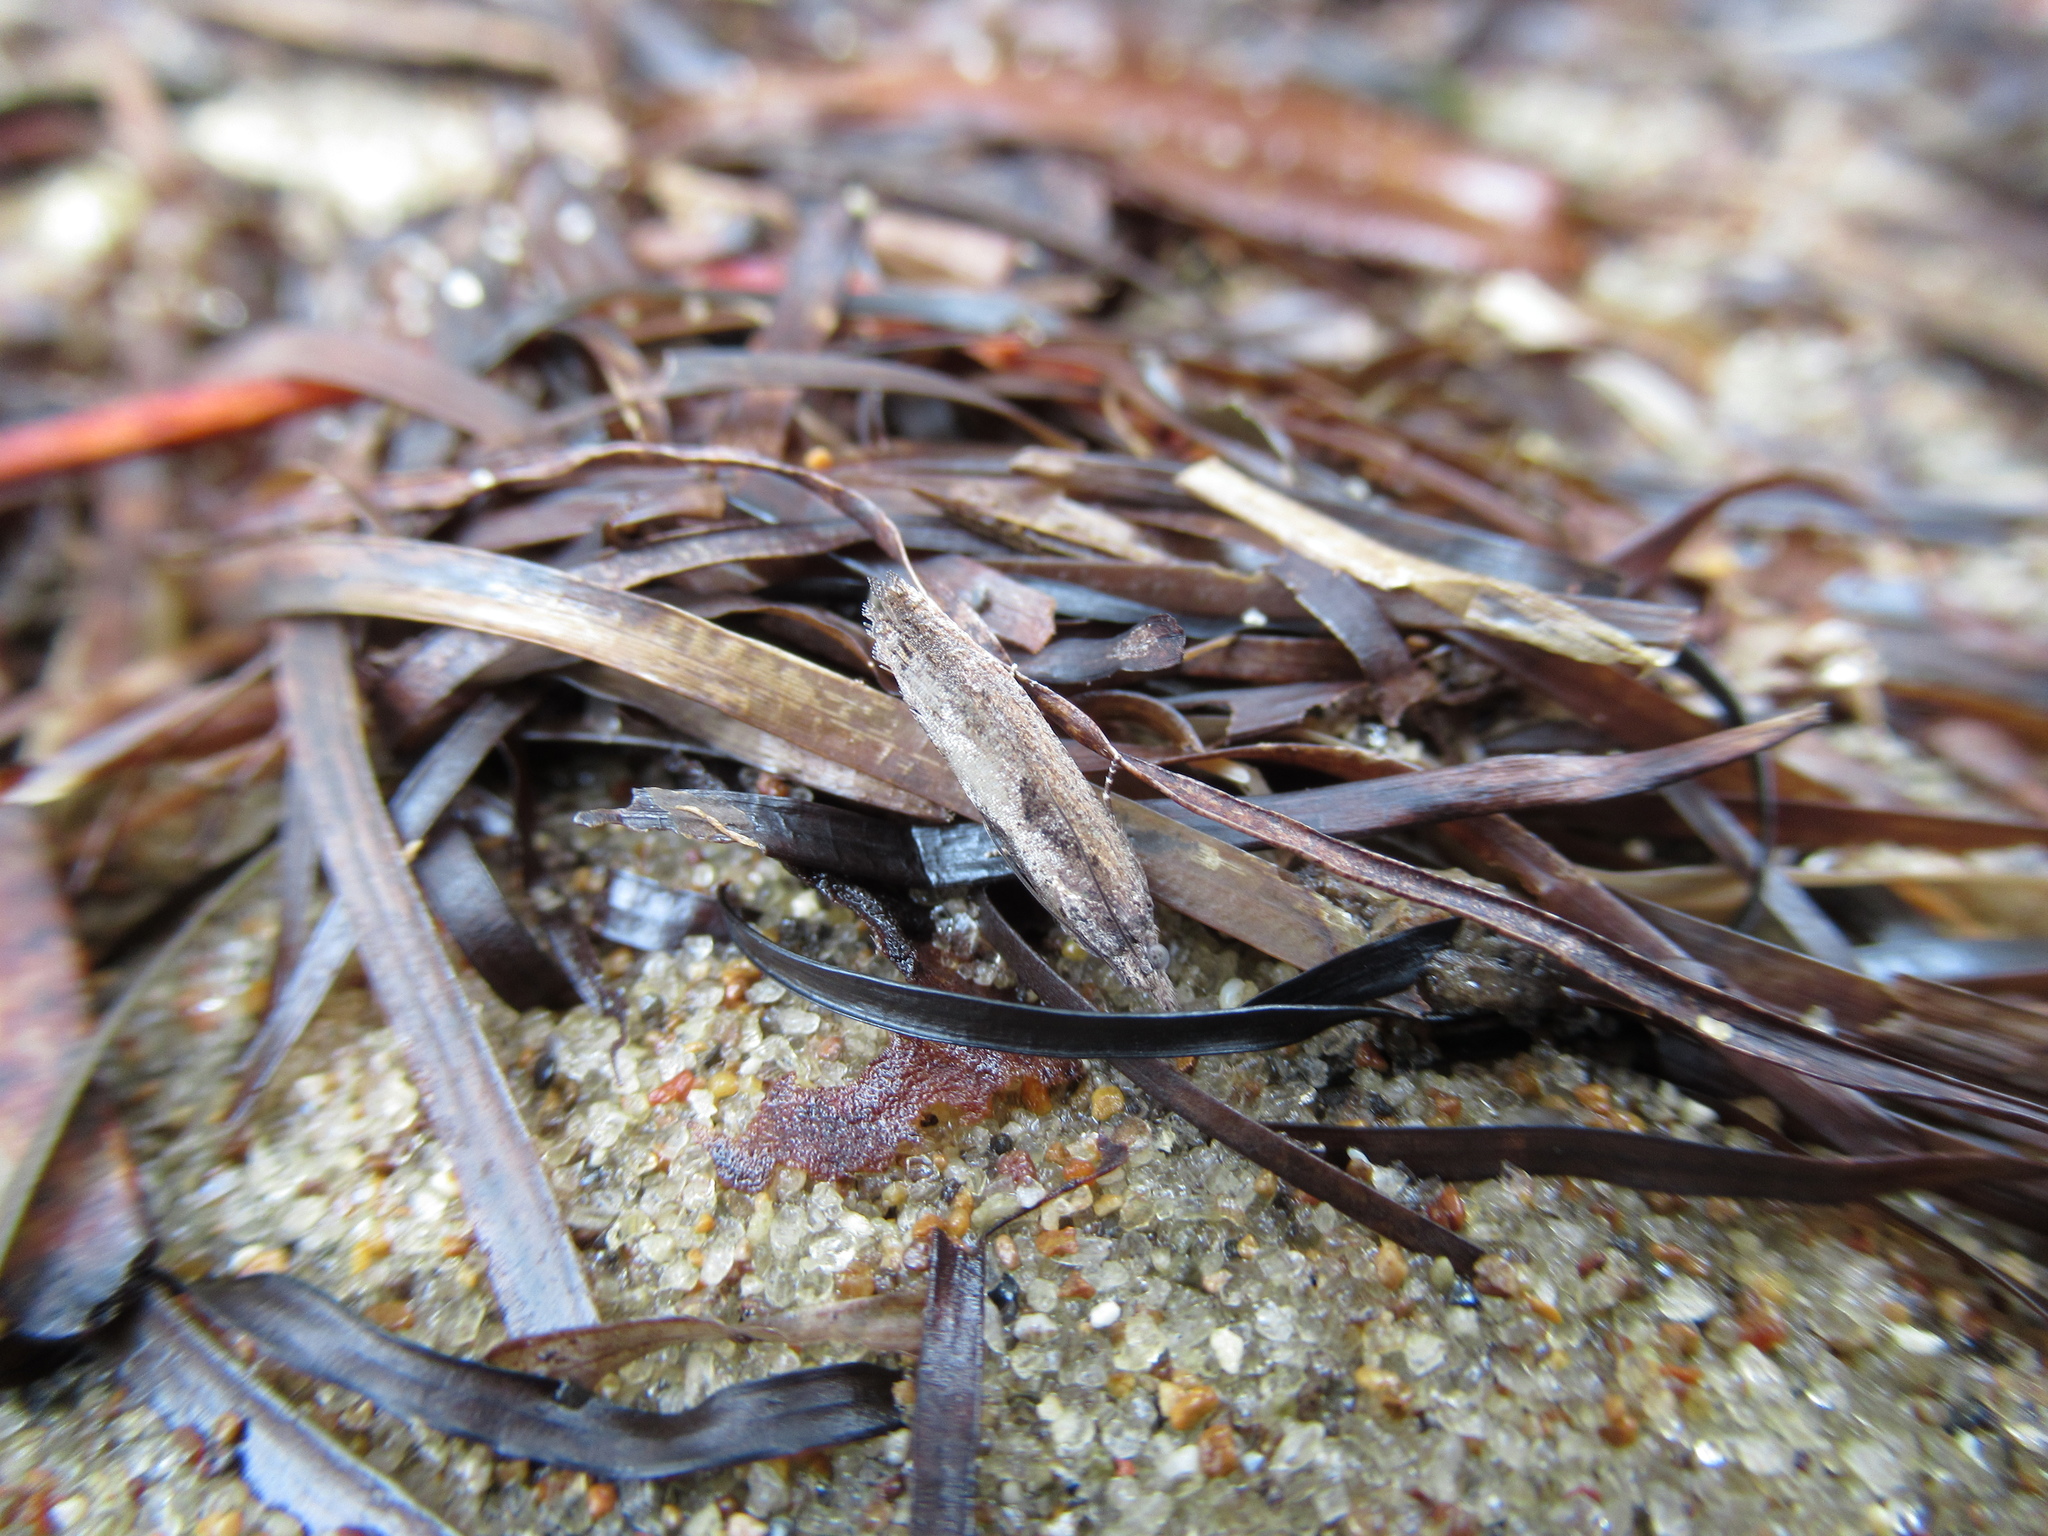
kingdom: Animalia
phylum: Arthropoda
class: Insecta
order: Lepidoptera
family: Tortricidae
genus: Strepsicrates
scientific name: Strepsicrates macropetana
